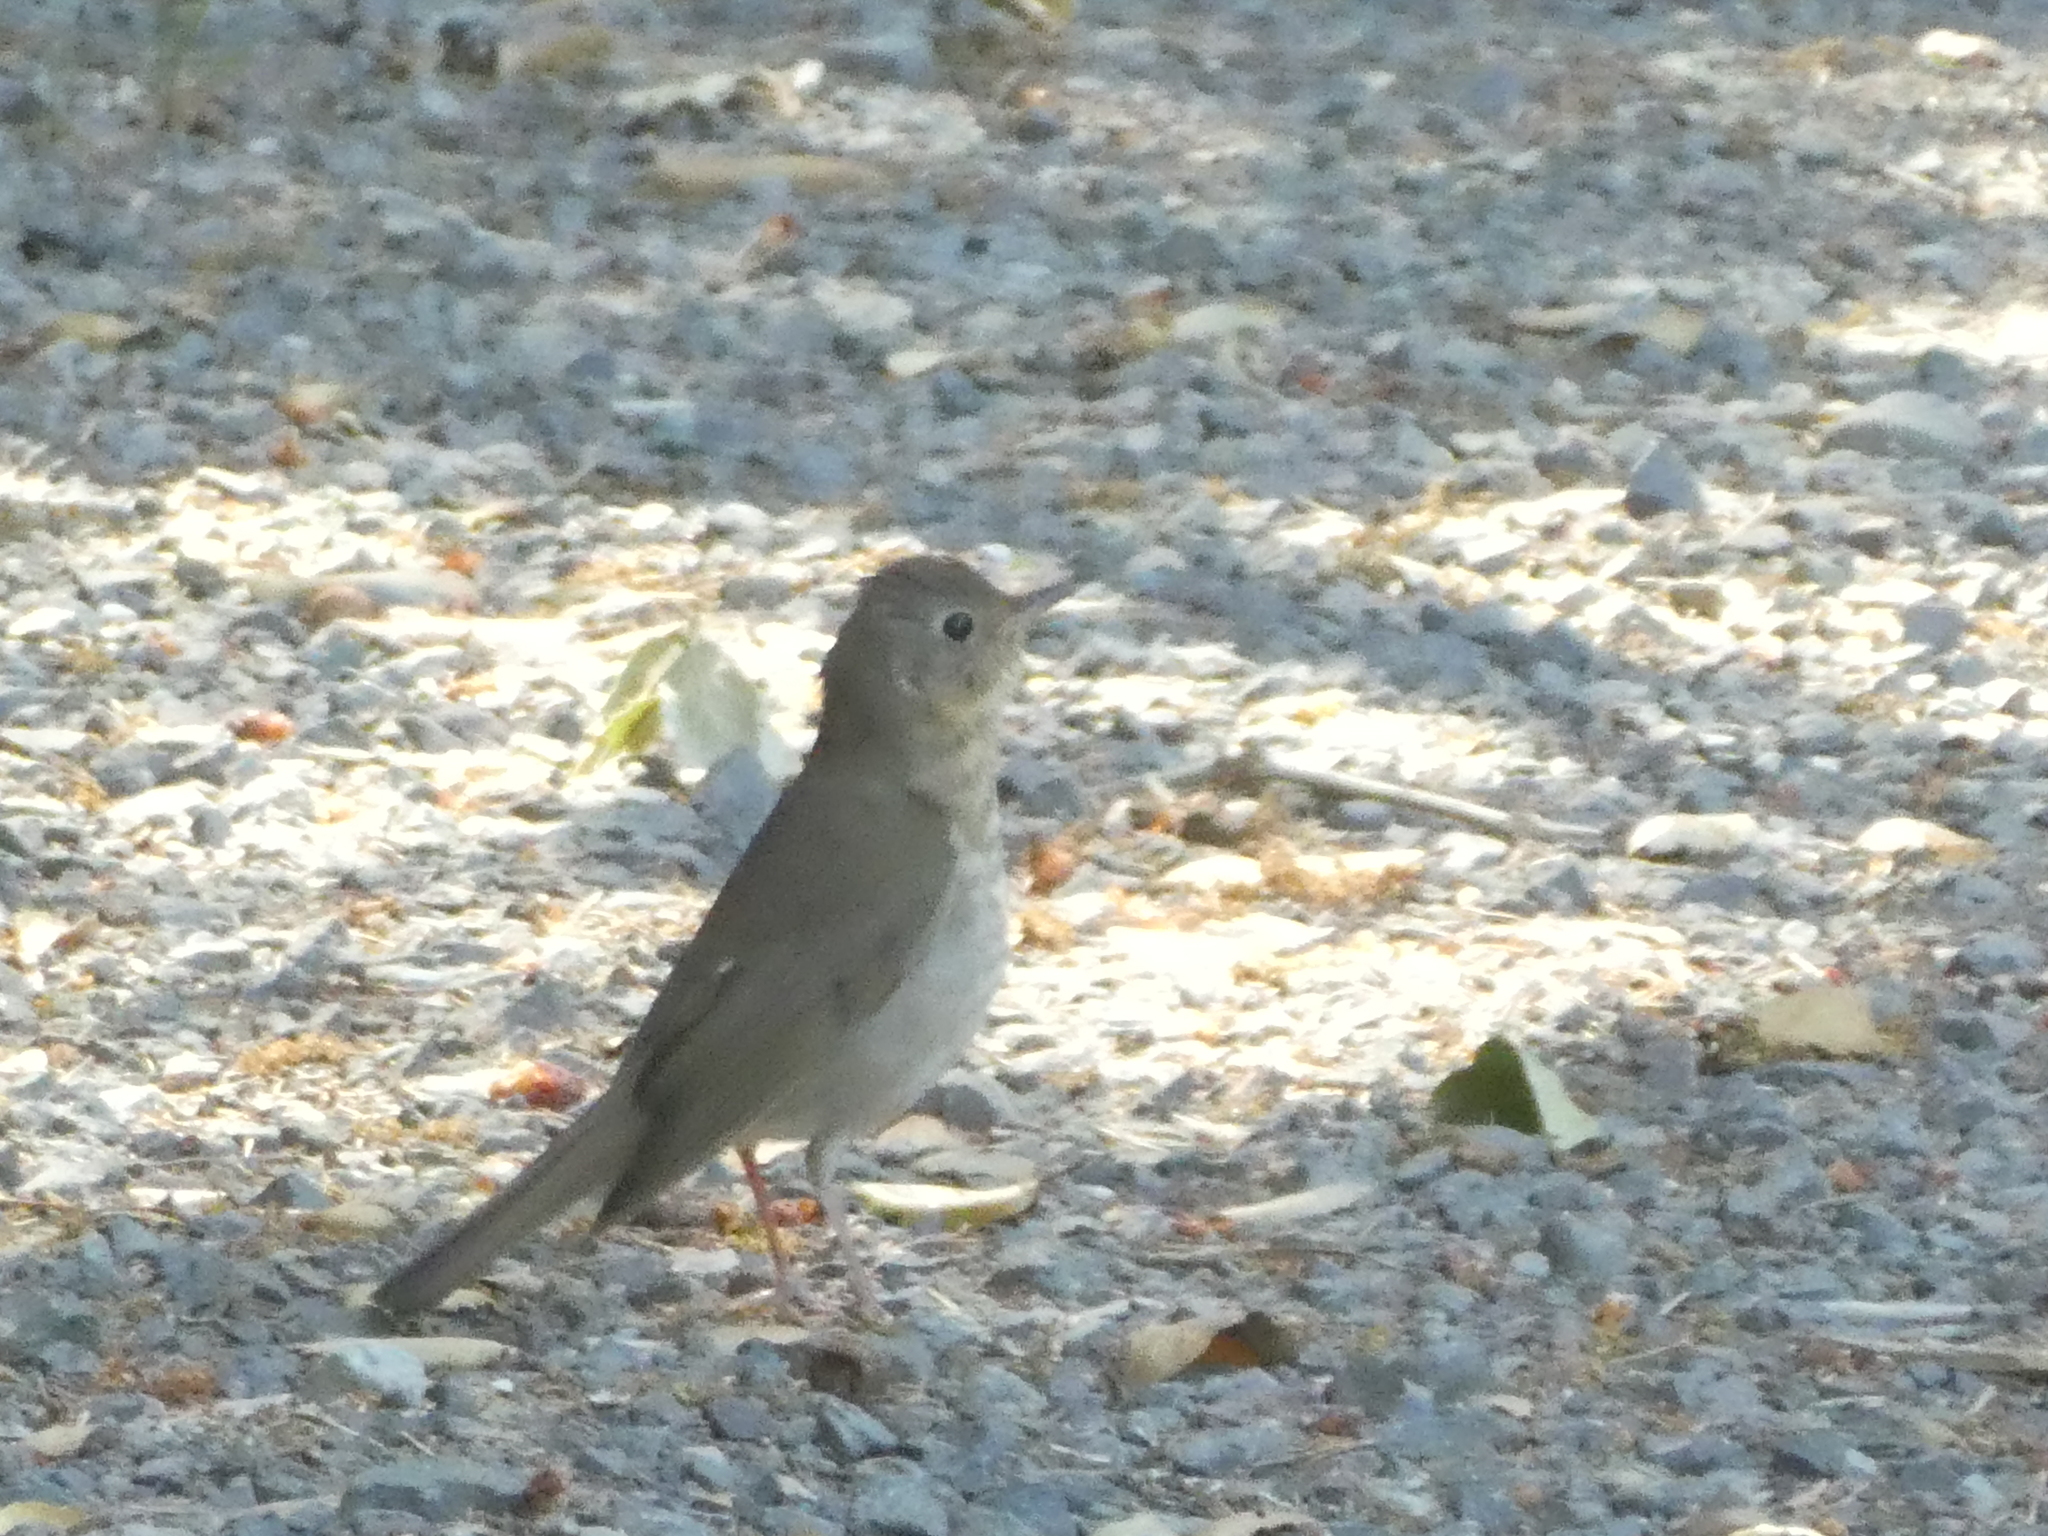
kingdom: Animalia
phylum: Chordata
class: Aves
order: Passeriformes
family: Turdidae
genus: Catharus
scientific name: Catharus ustulatus
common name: Swainson's thrush
